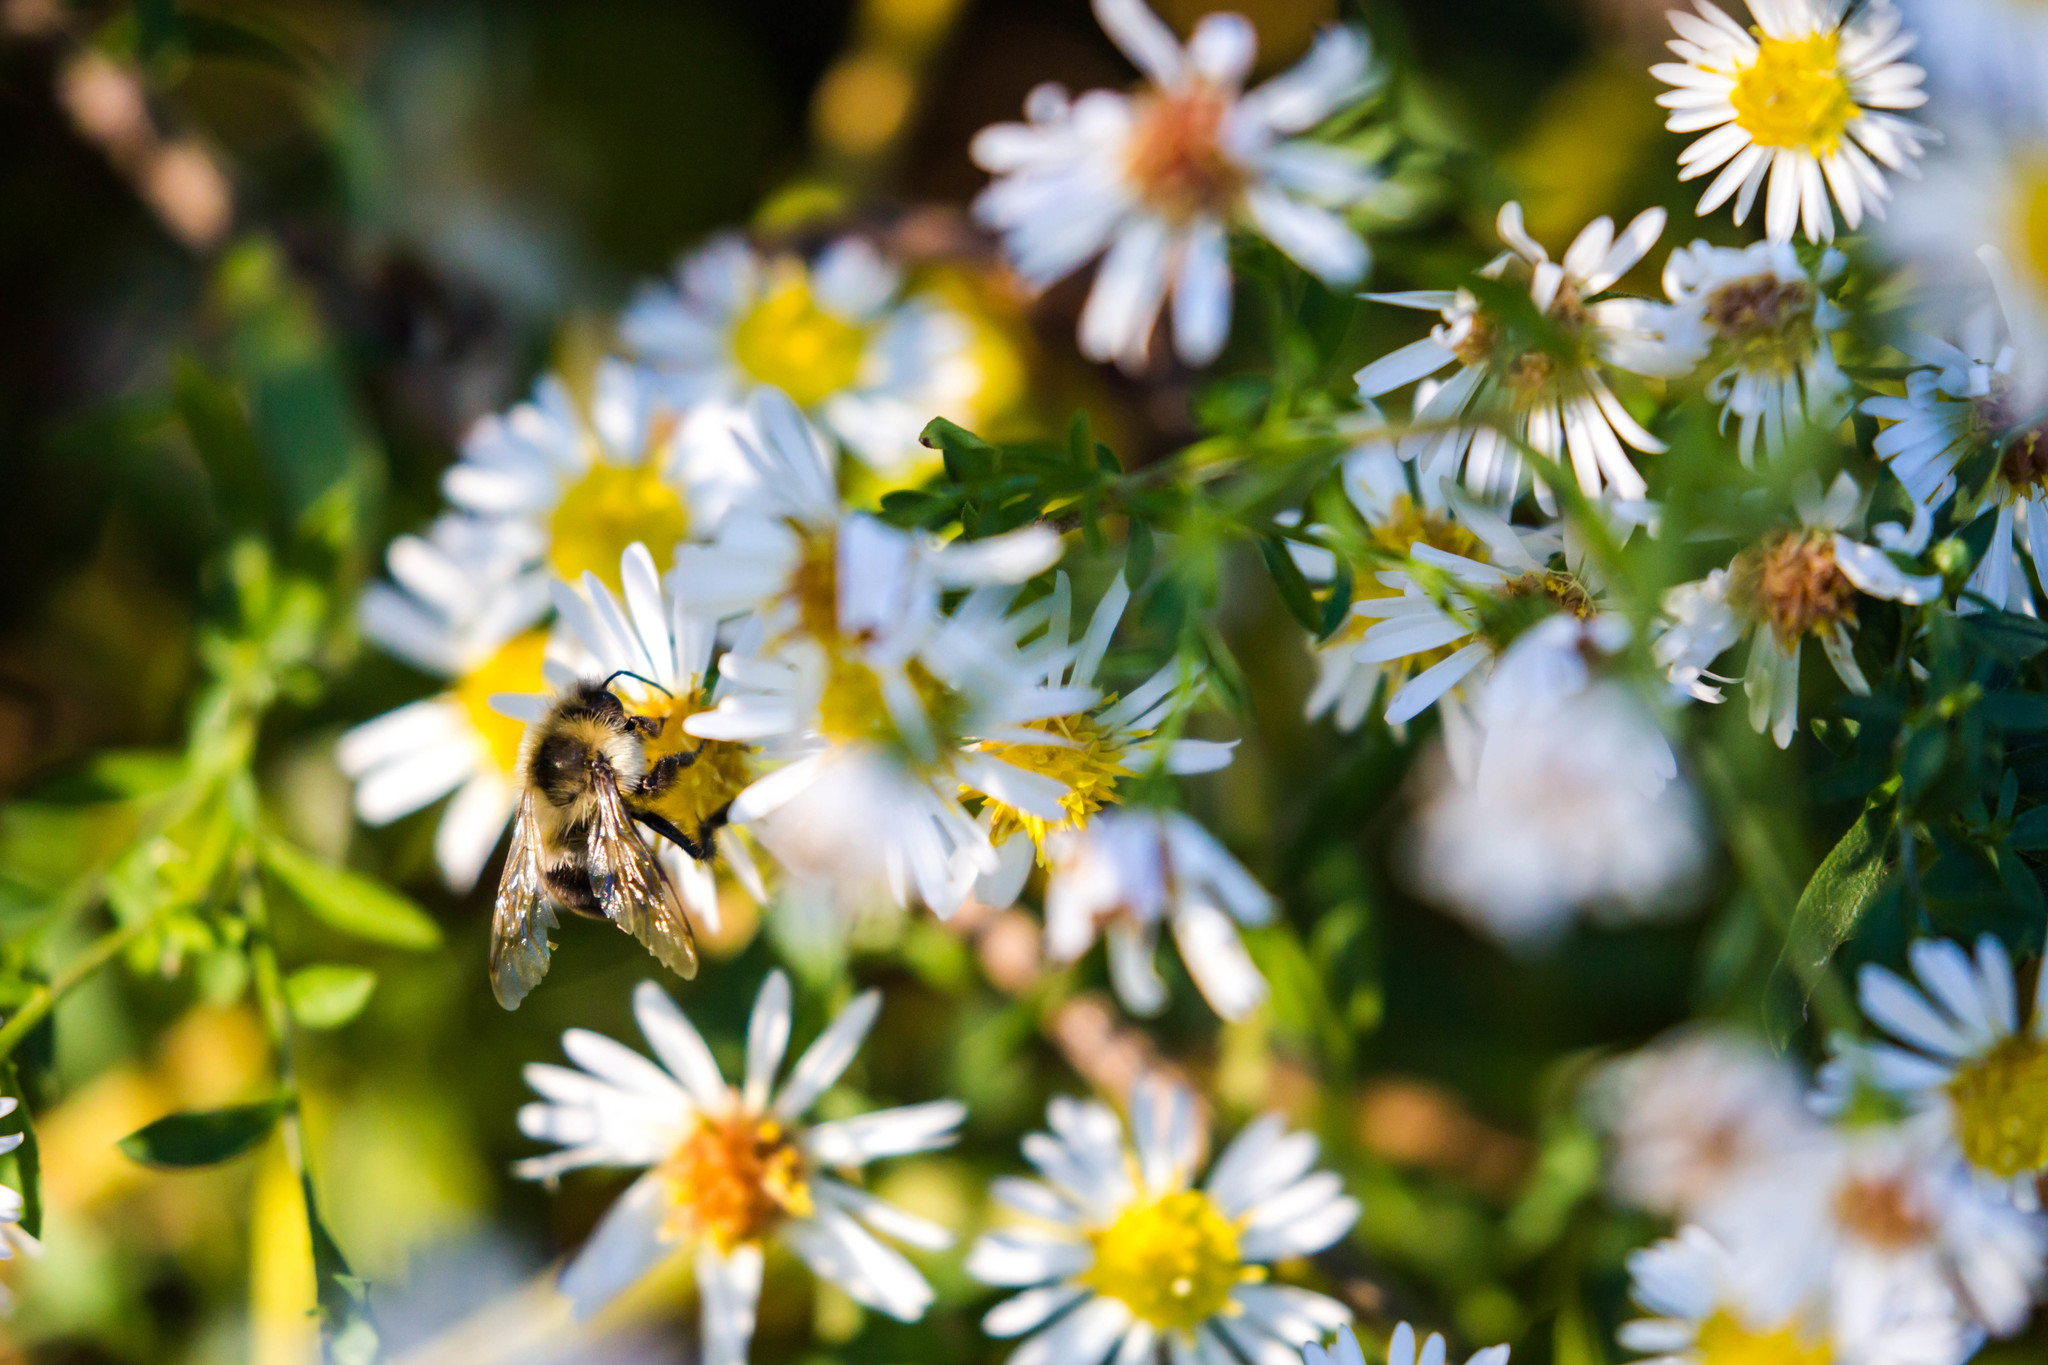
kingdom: Animalia
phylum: Arthropoda
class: Insecta
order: Hymenoptera
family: Apidae
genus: Bombus
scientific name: Bombus impatiens
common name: Common eastern bumble bee
